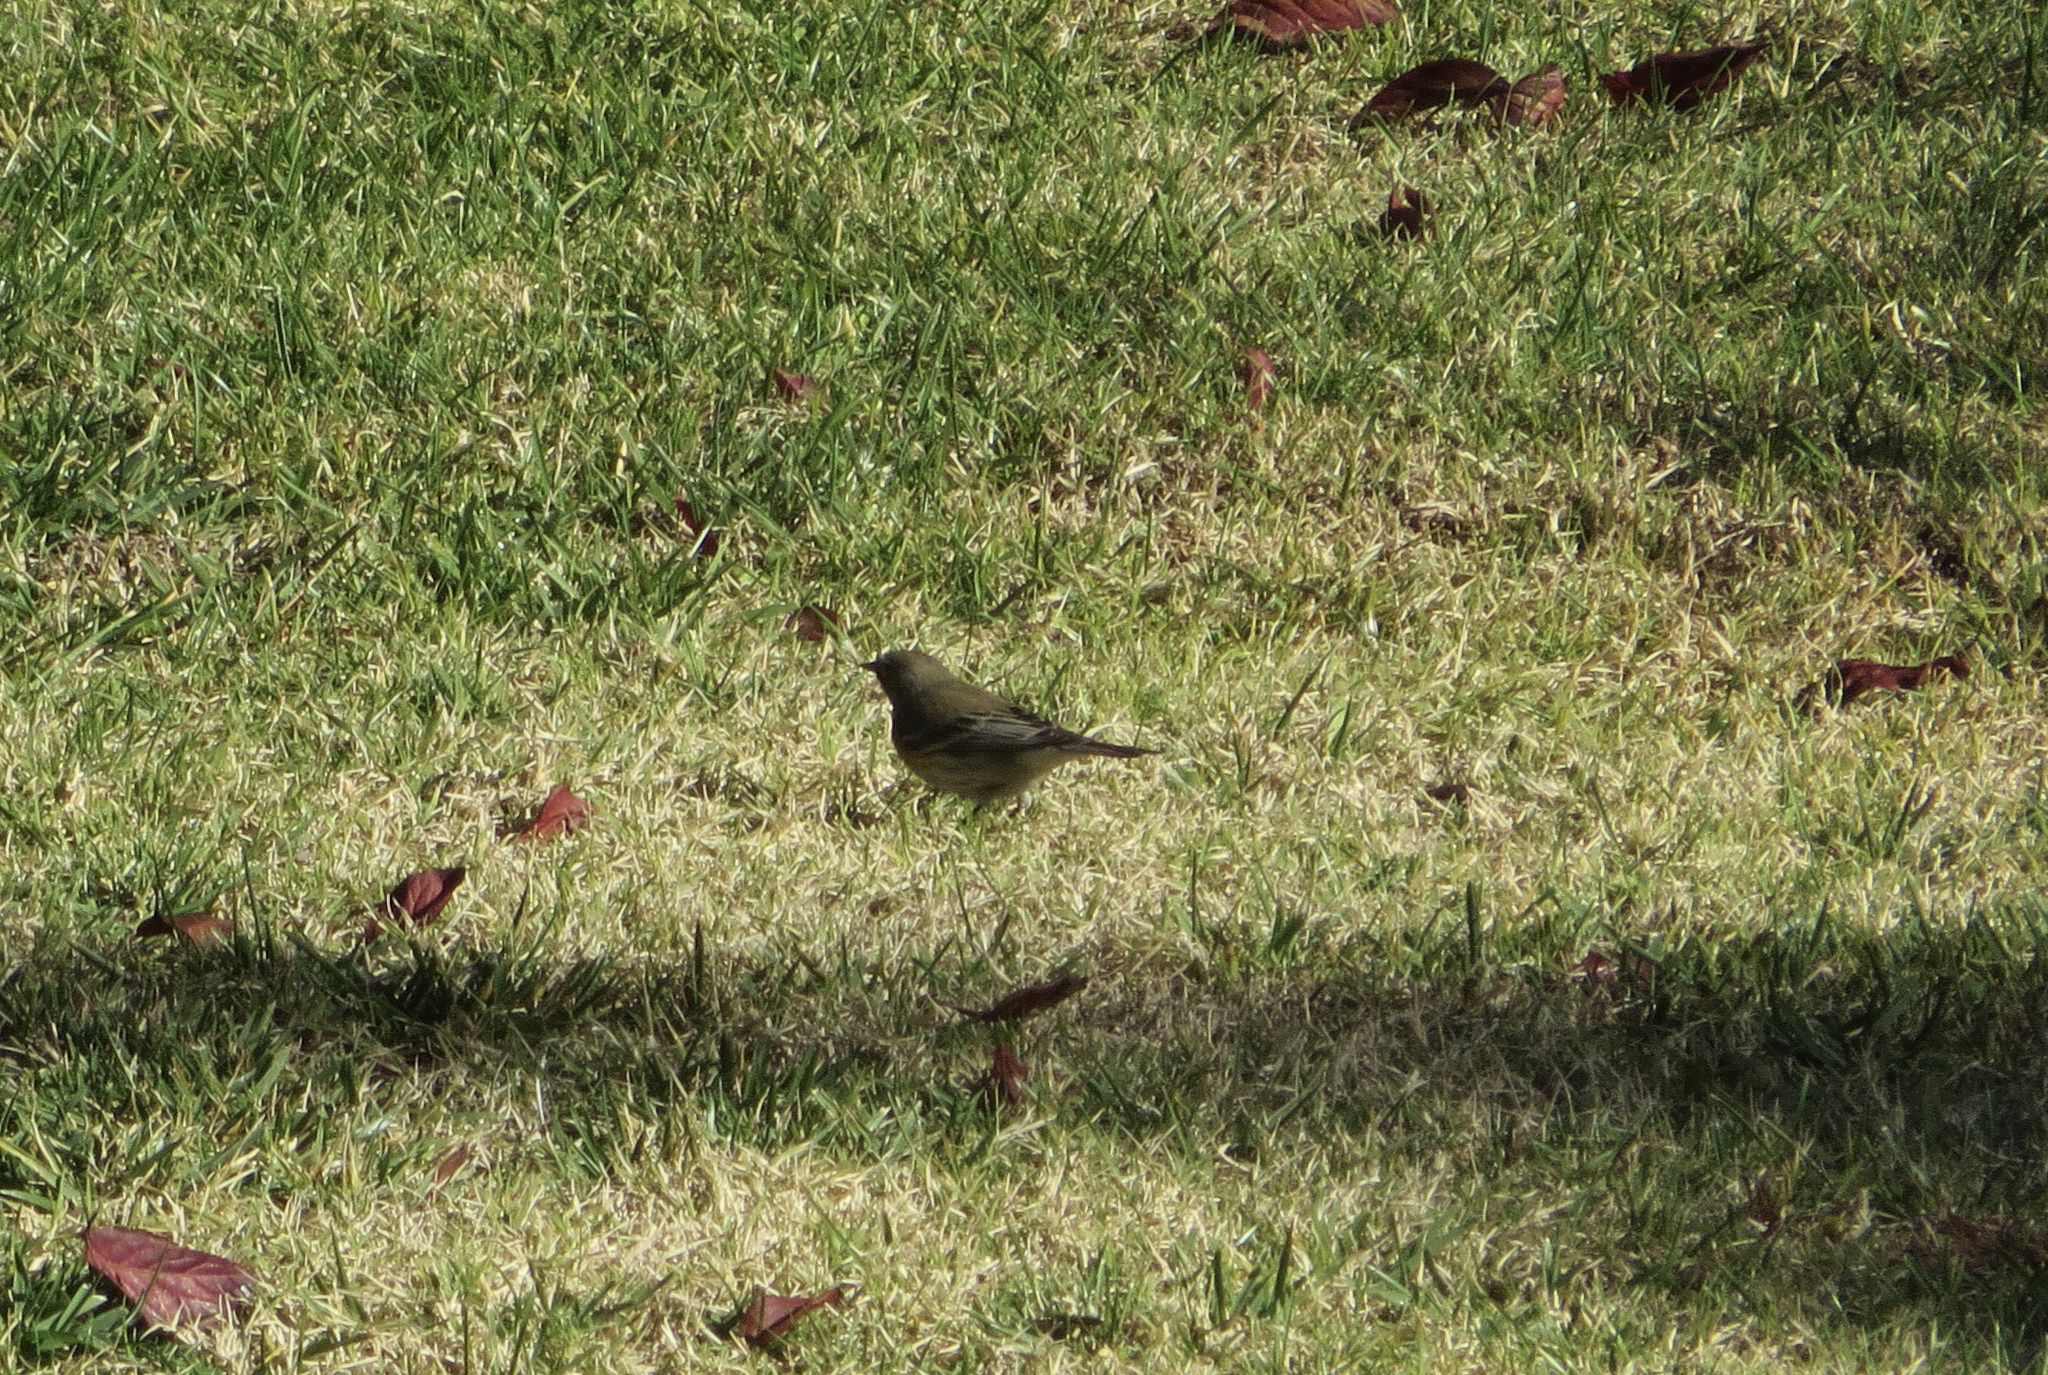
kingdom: Animalia
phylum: Chordata
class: Aves
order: Passeriformes
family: Parulidae
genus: Setophaga
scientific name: Setophaga coronata
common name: Myrtle warbler
